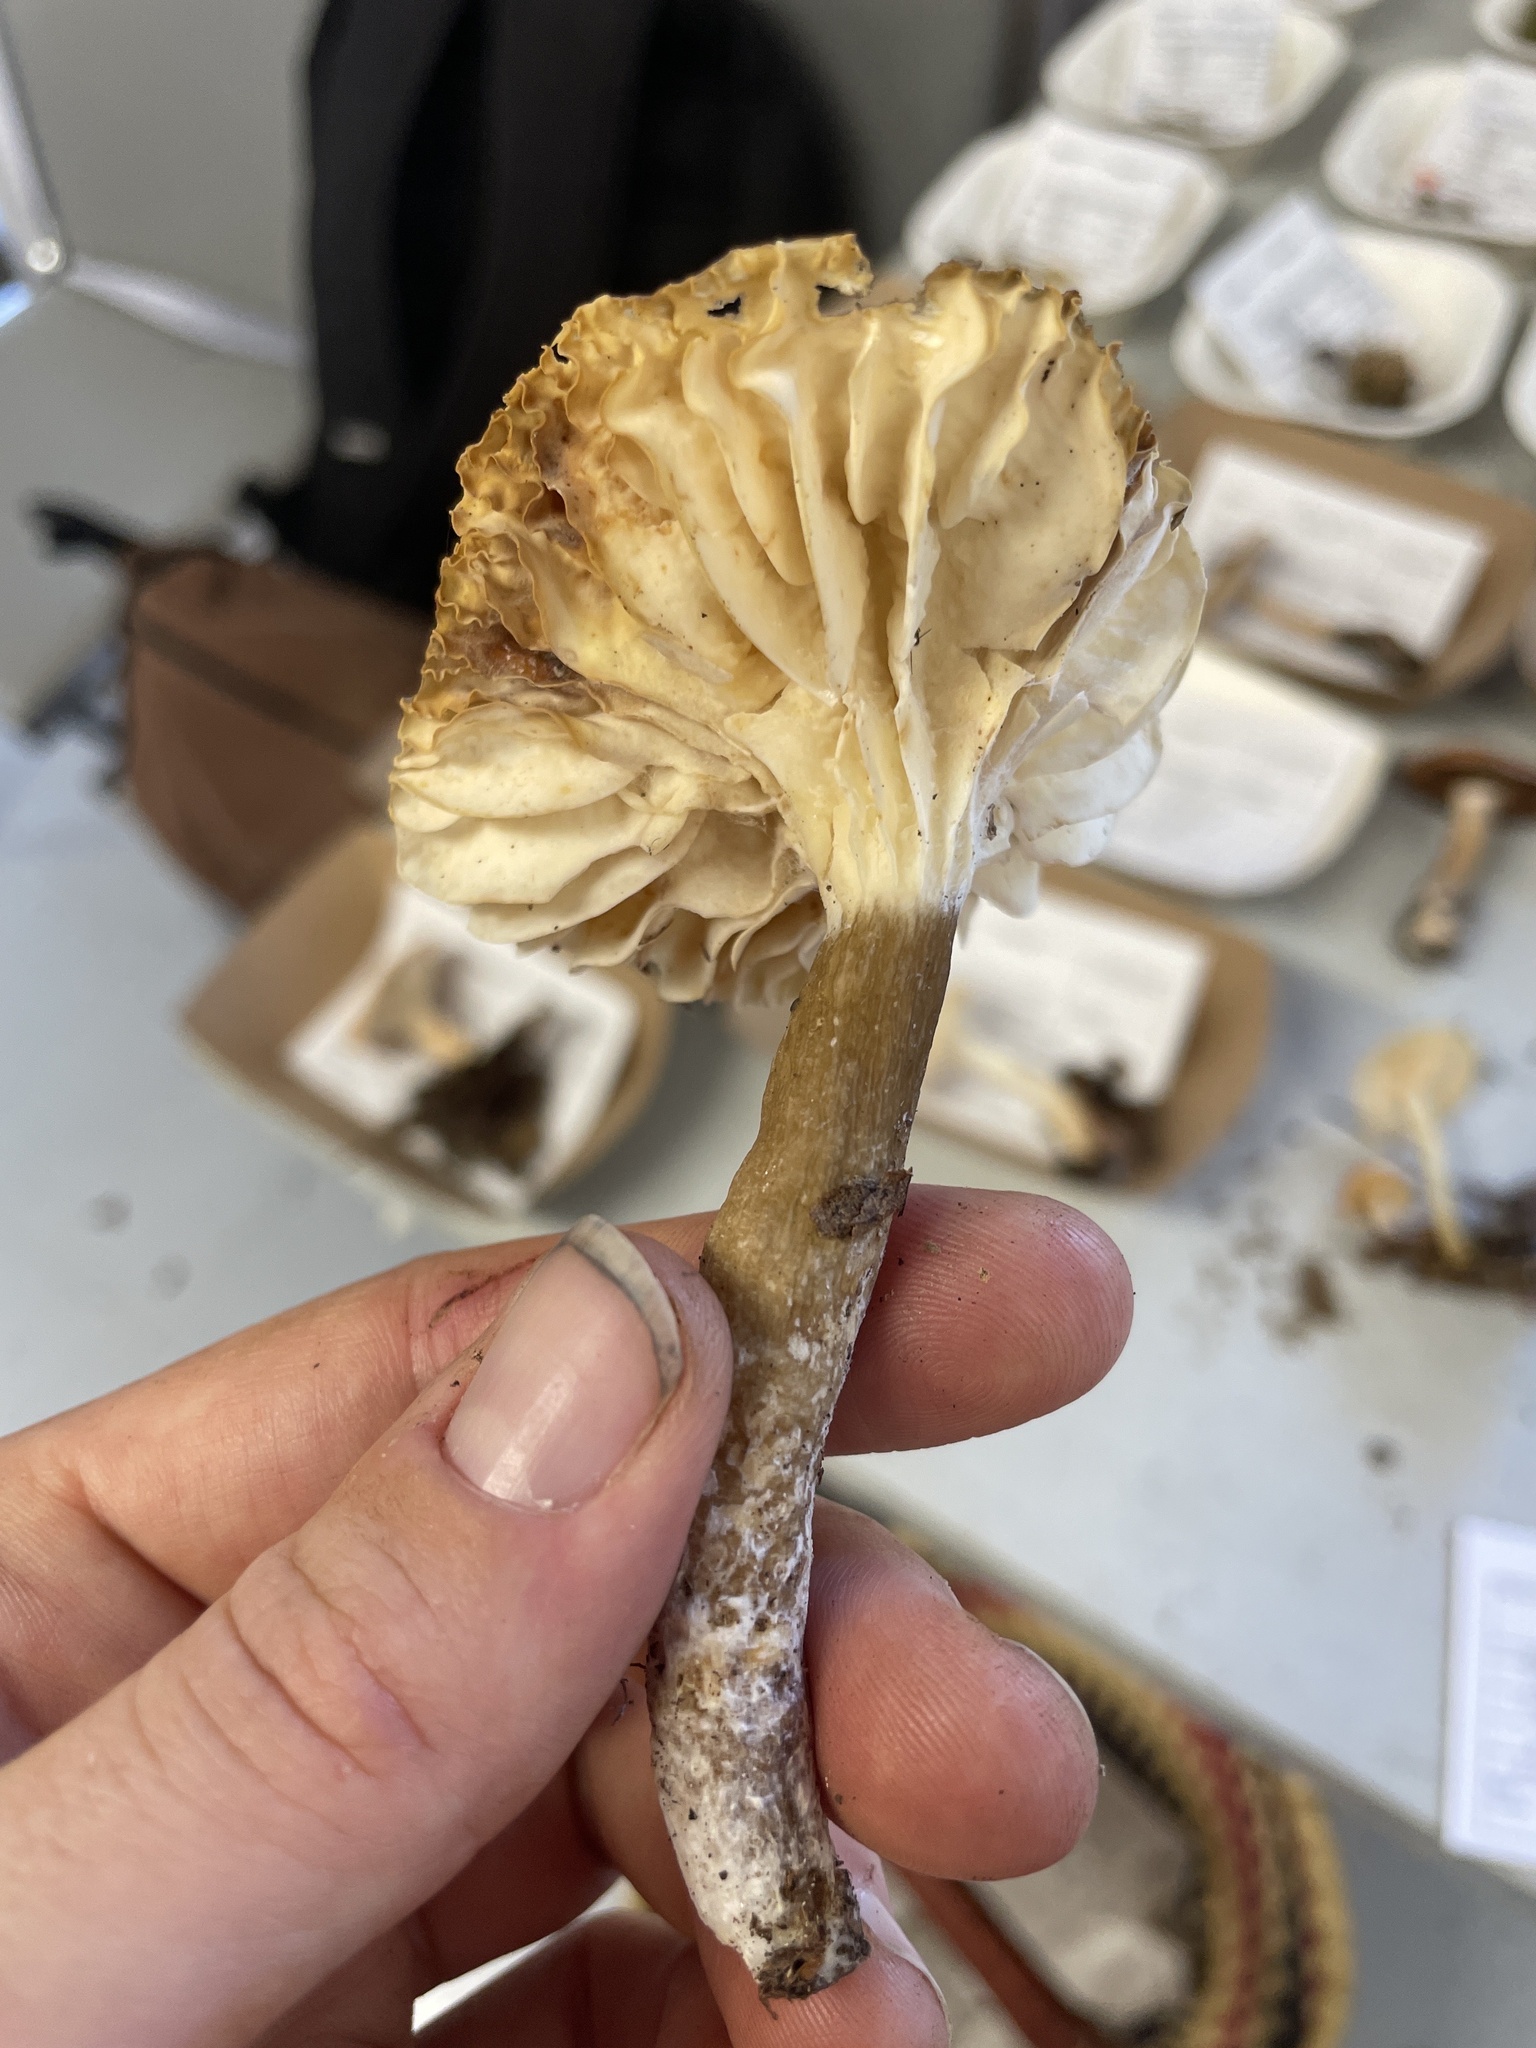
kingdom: Fungi
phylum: Basidiomycota
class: Agaricomycetes
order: Russulales
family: Russulaceae
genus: Lactarius
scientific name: Lactarius gerardii
